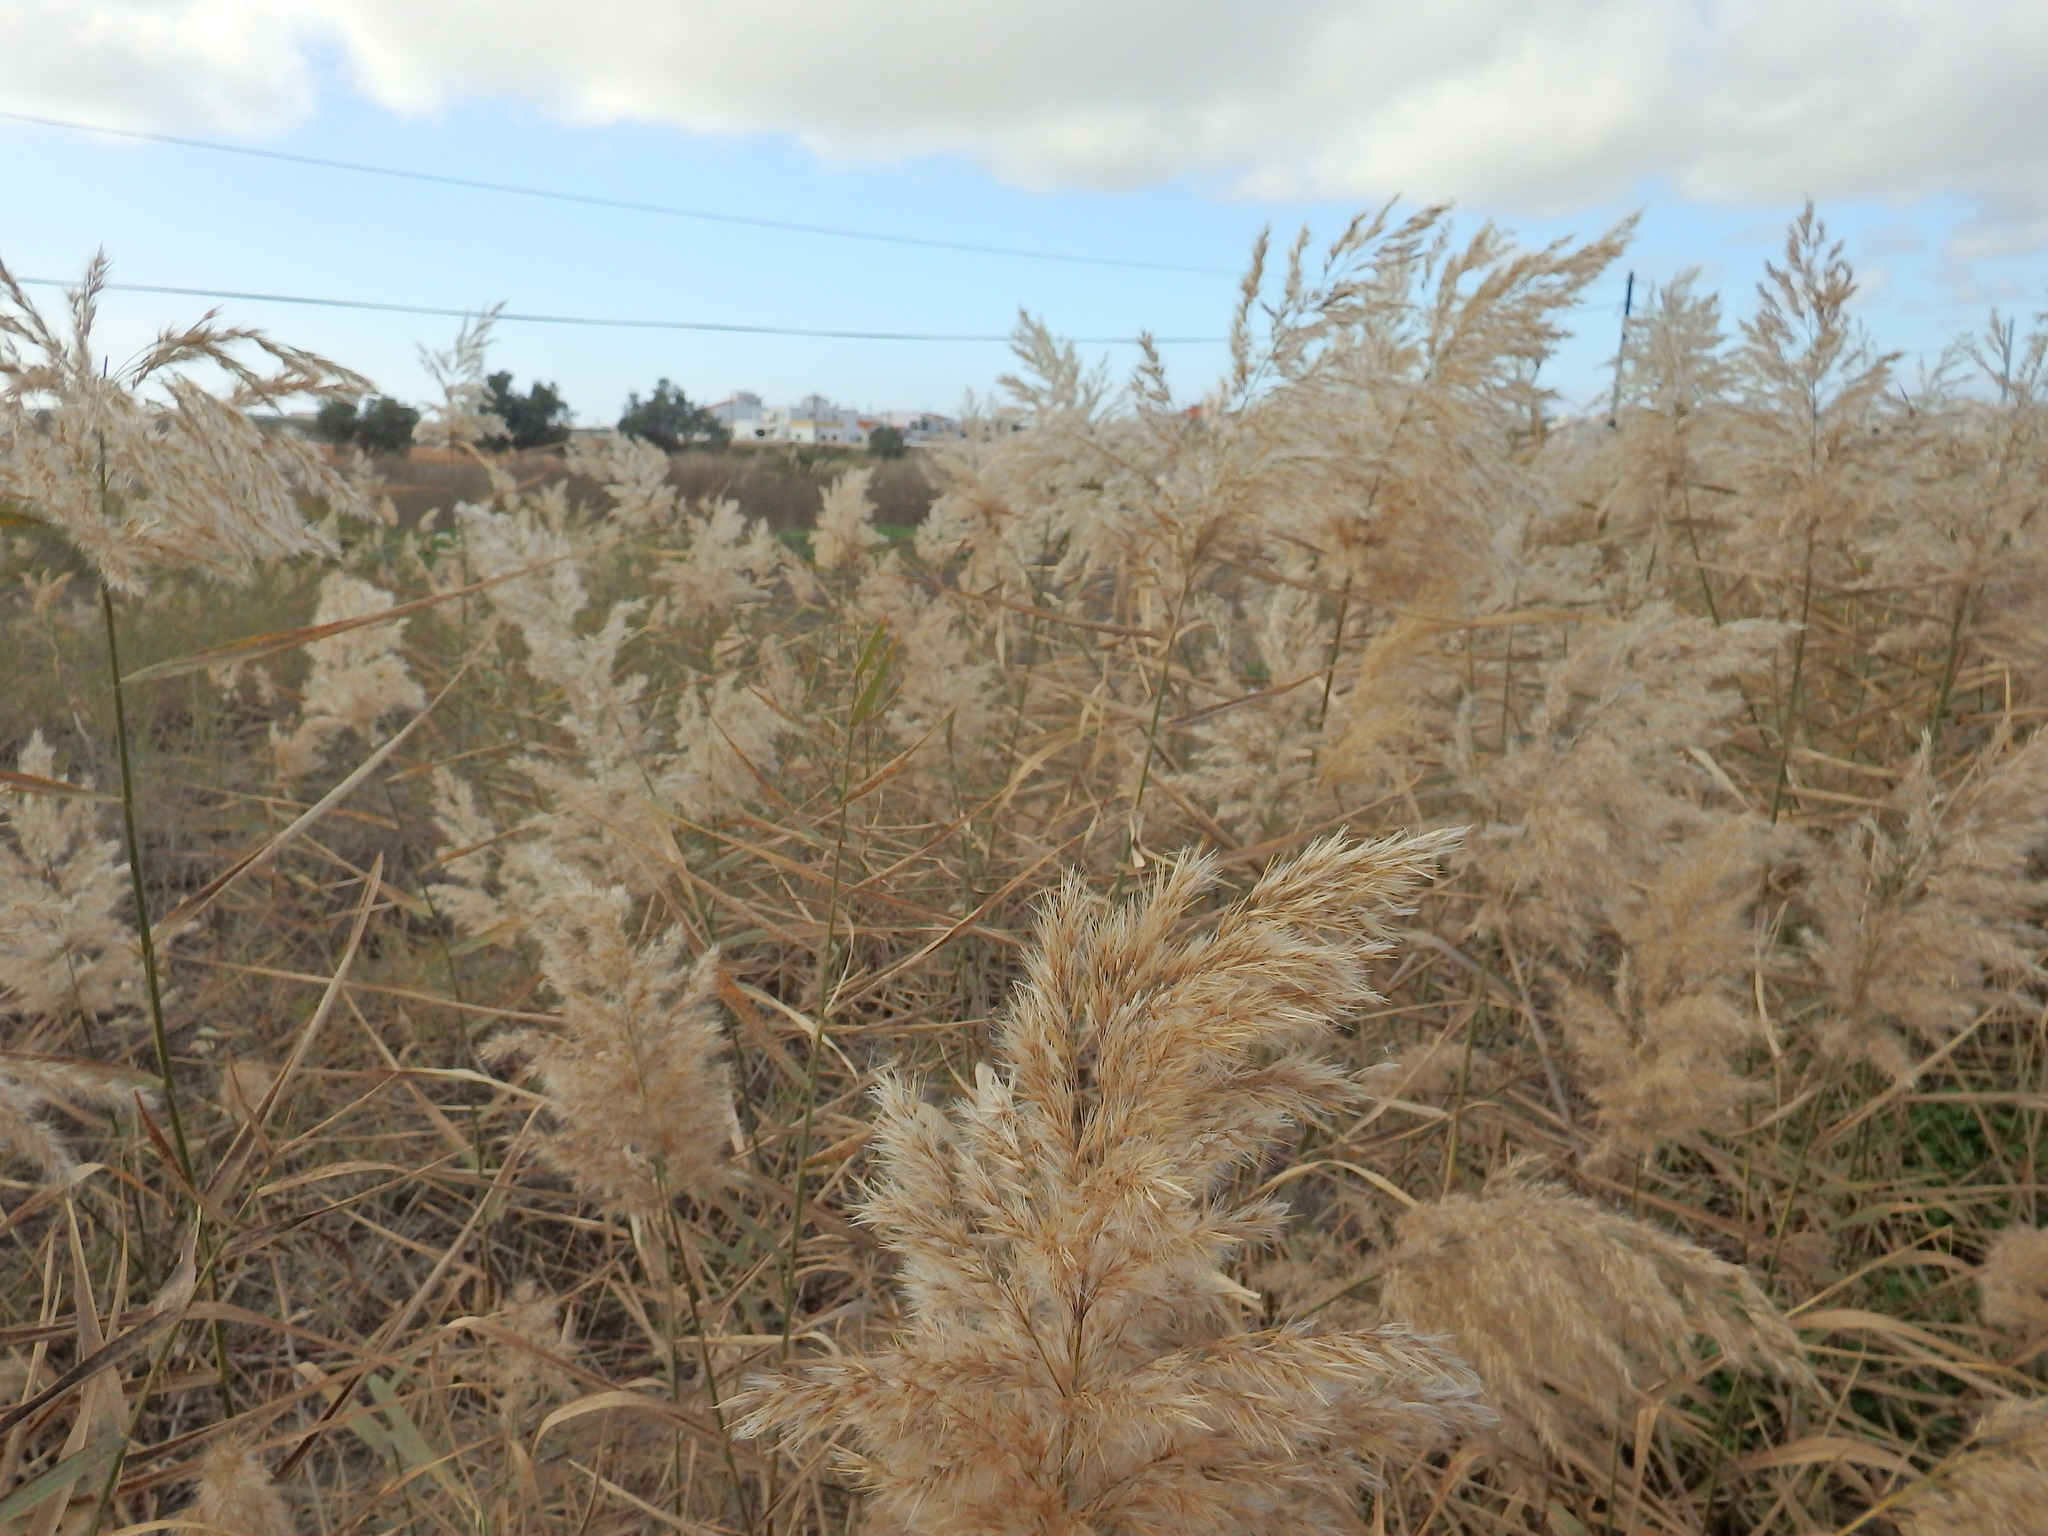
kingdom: Plantae
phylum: Tracheophyta
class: Liliopsida
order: Poales
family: Poaceae
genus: Phragmites
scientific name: Phragmites australis
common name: Common reed
